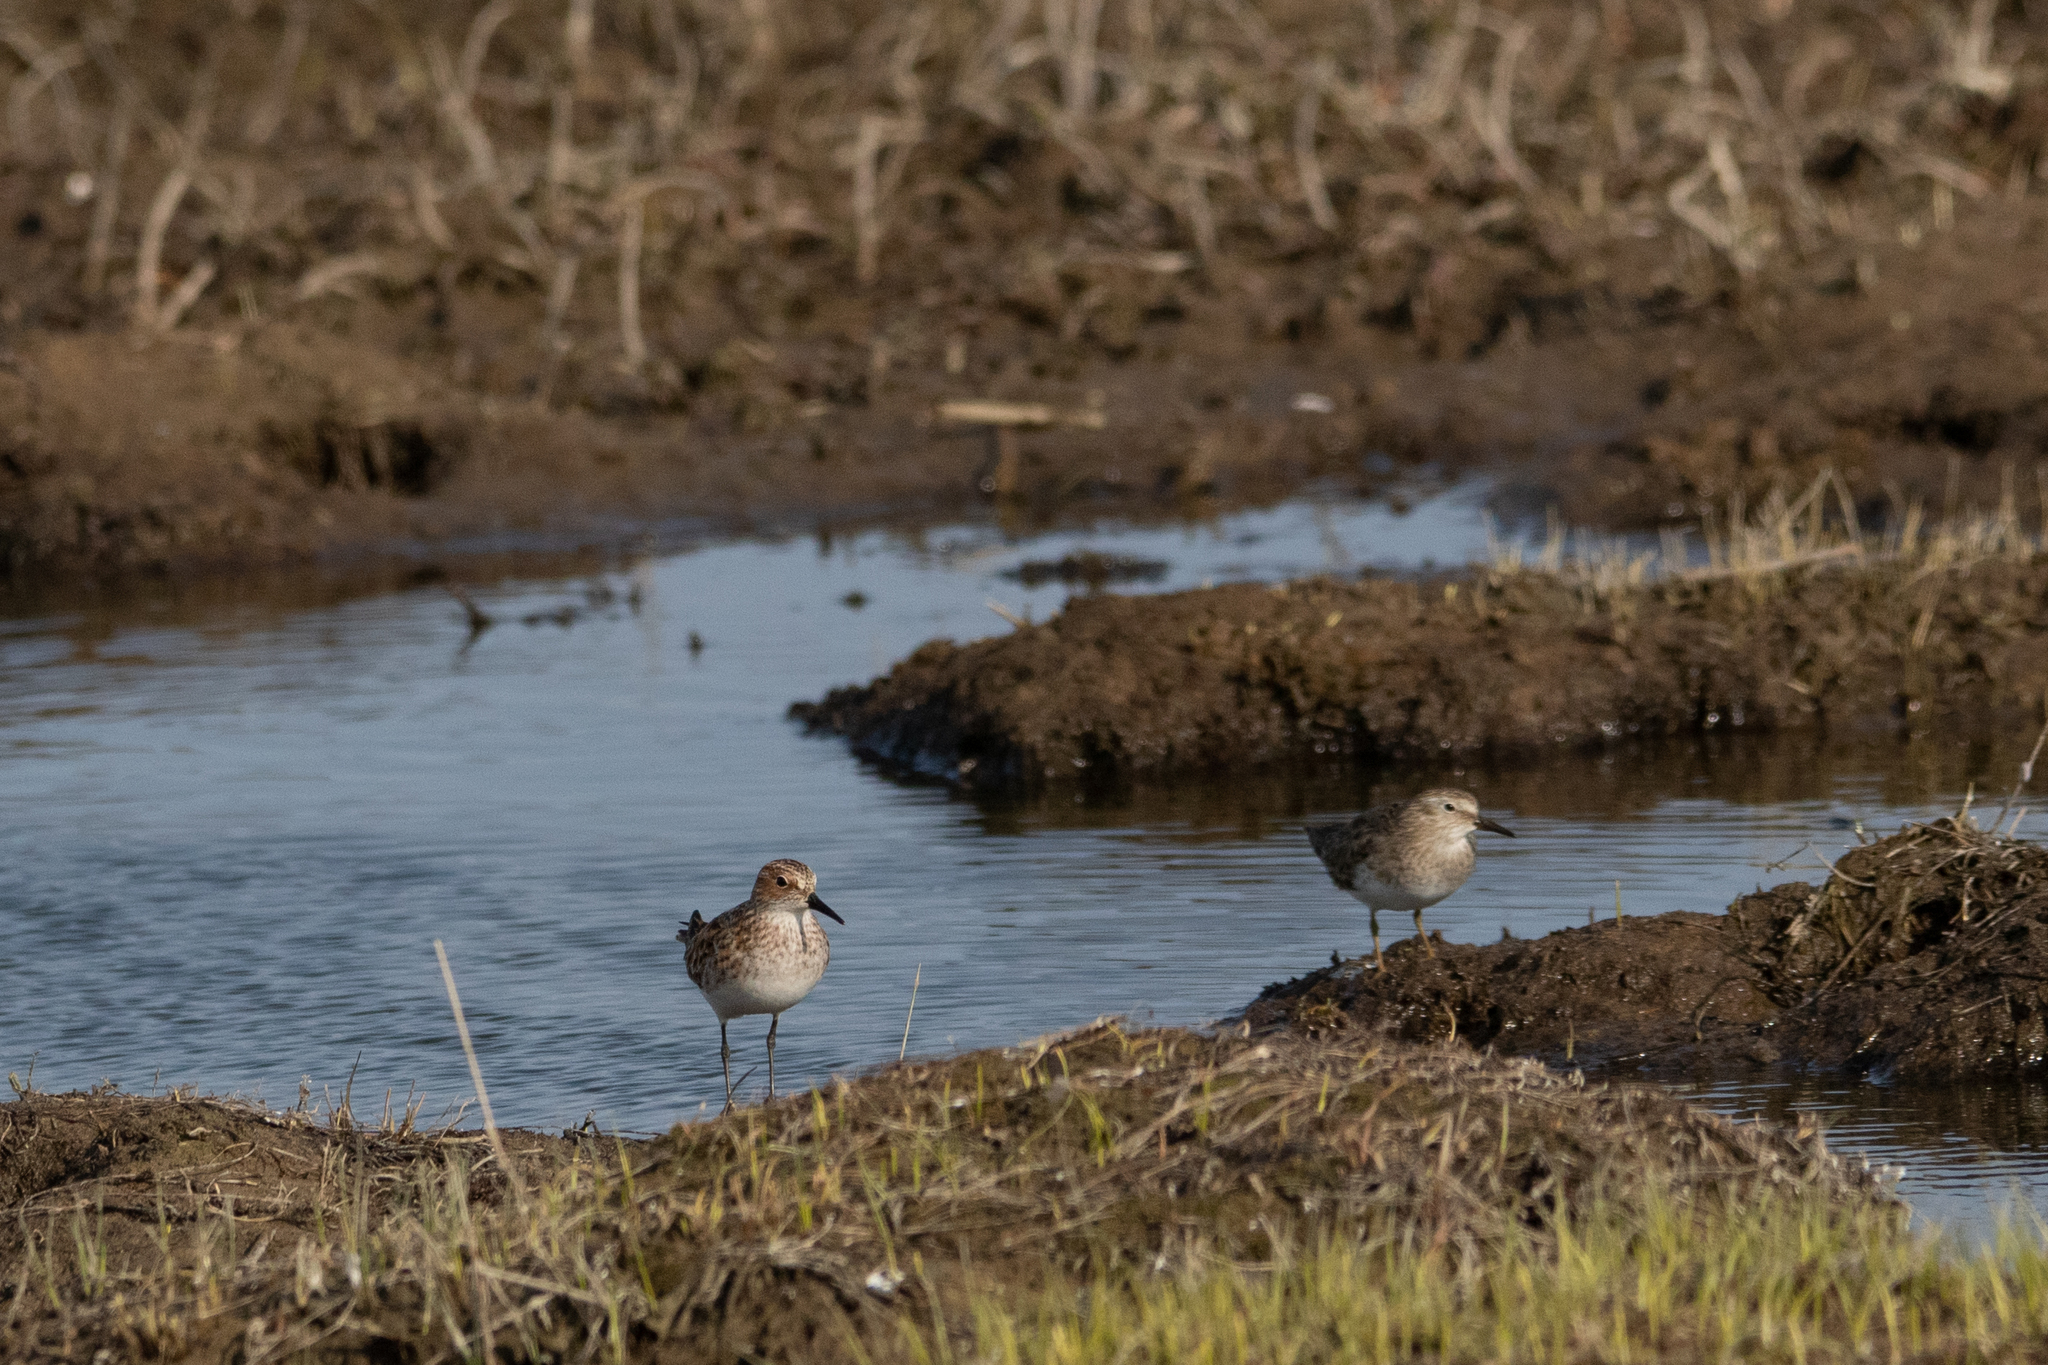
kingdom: Animalia
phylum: Chordata
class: Aves
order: Charadriiformes
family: Scolopacidae
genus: Calidris
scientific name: Calidris temminckii
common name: Temminck's stint
